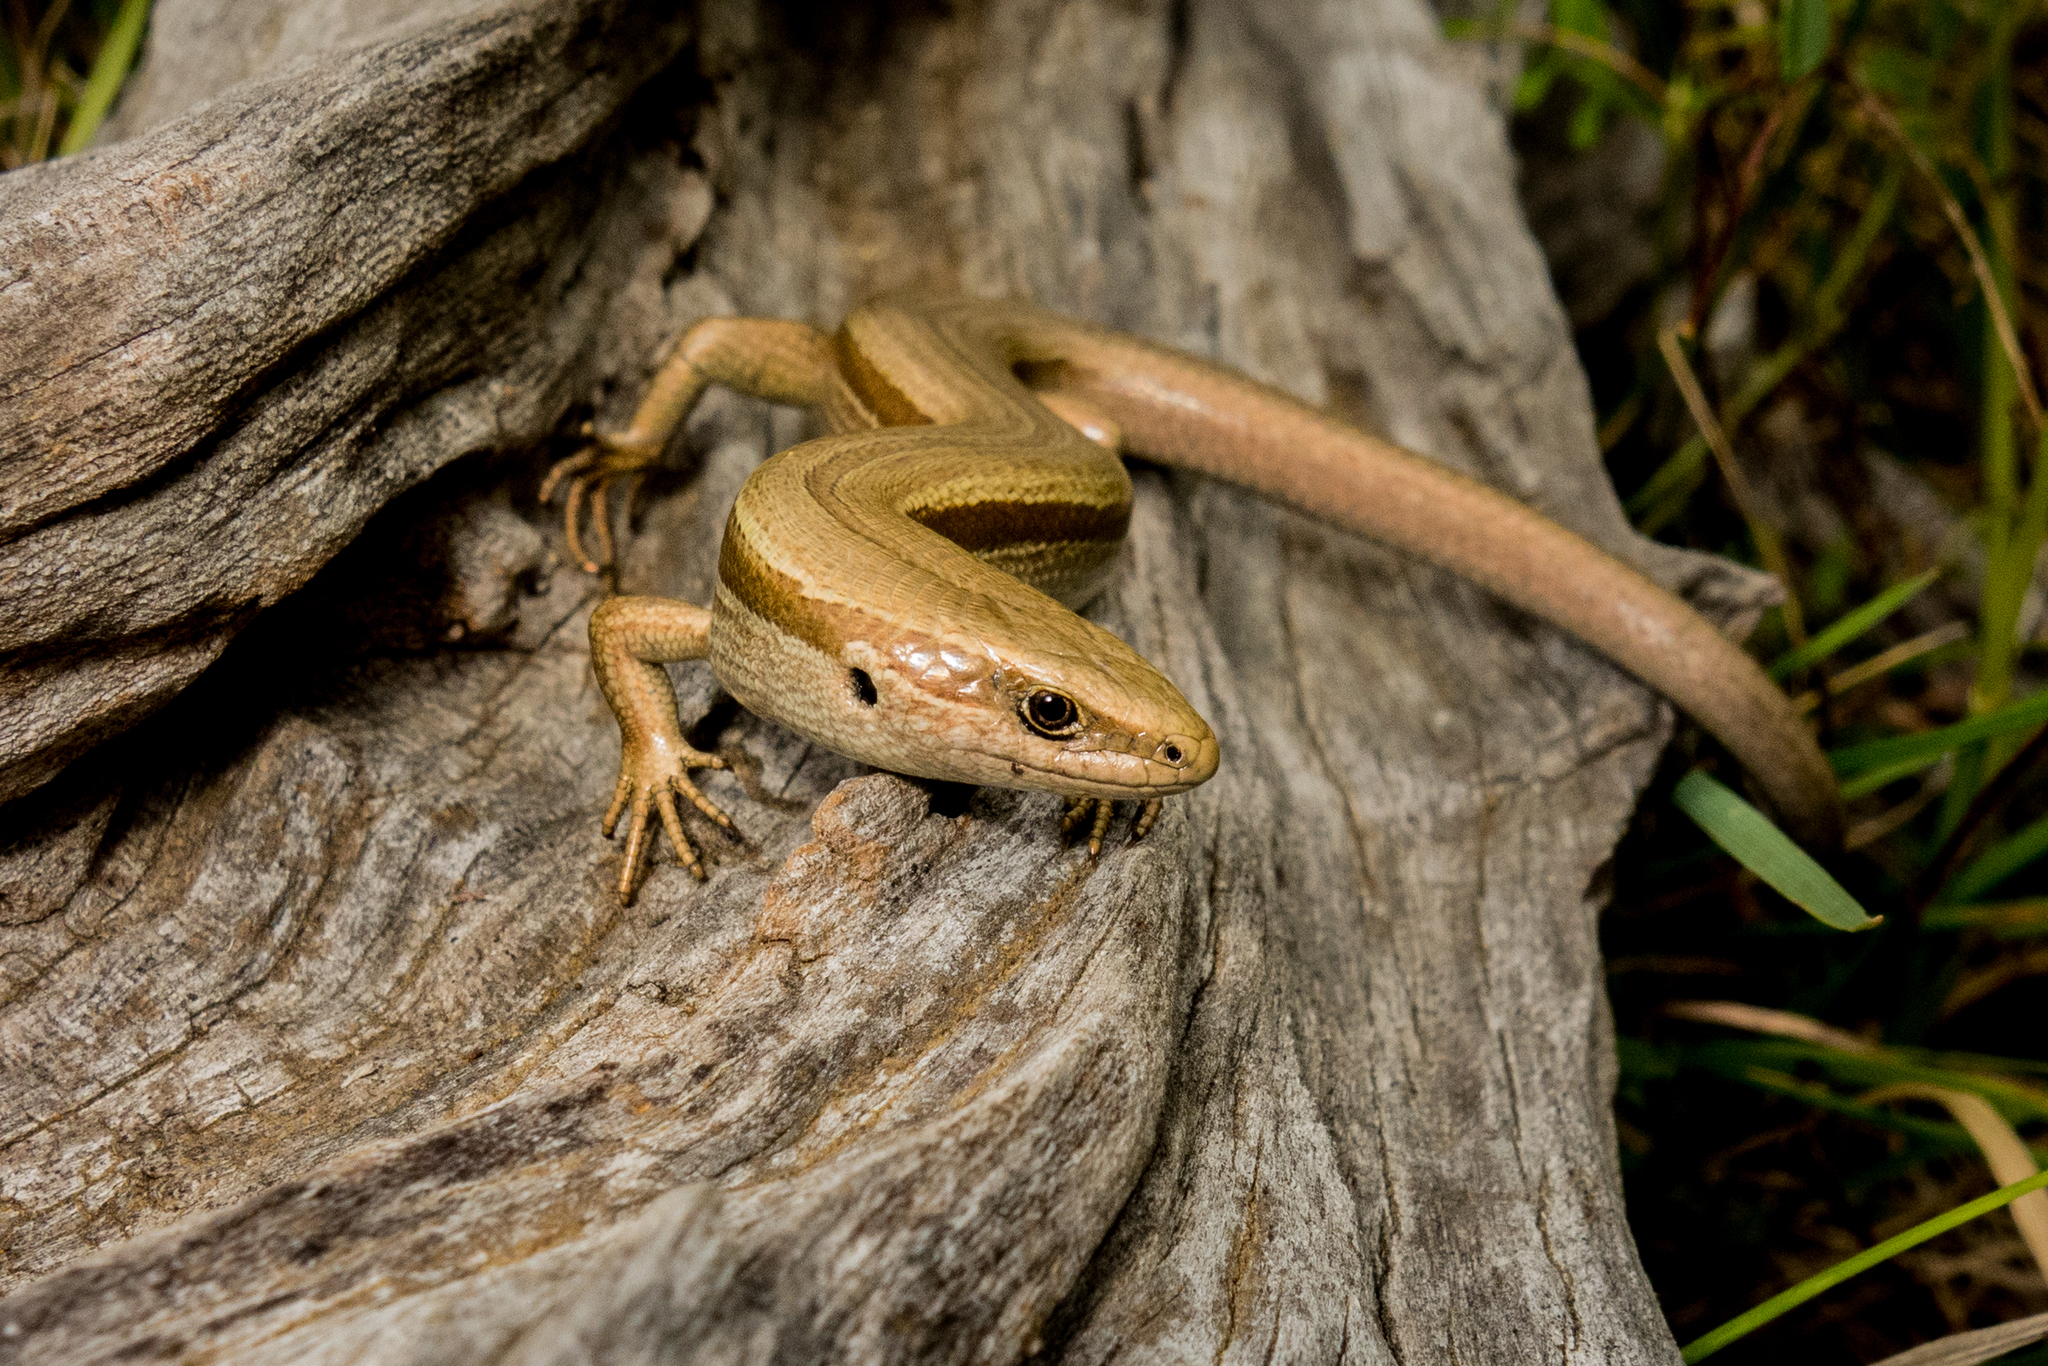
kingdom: Animalia
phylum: Chordata
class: Squamata
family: Scincidae
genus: Oligosoma
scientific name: Oligosoma polychroma
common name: Common new zealand skink
